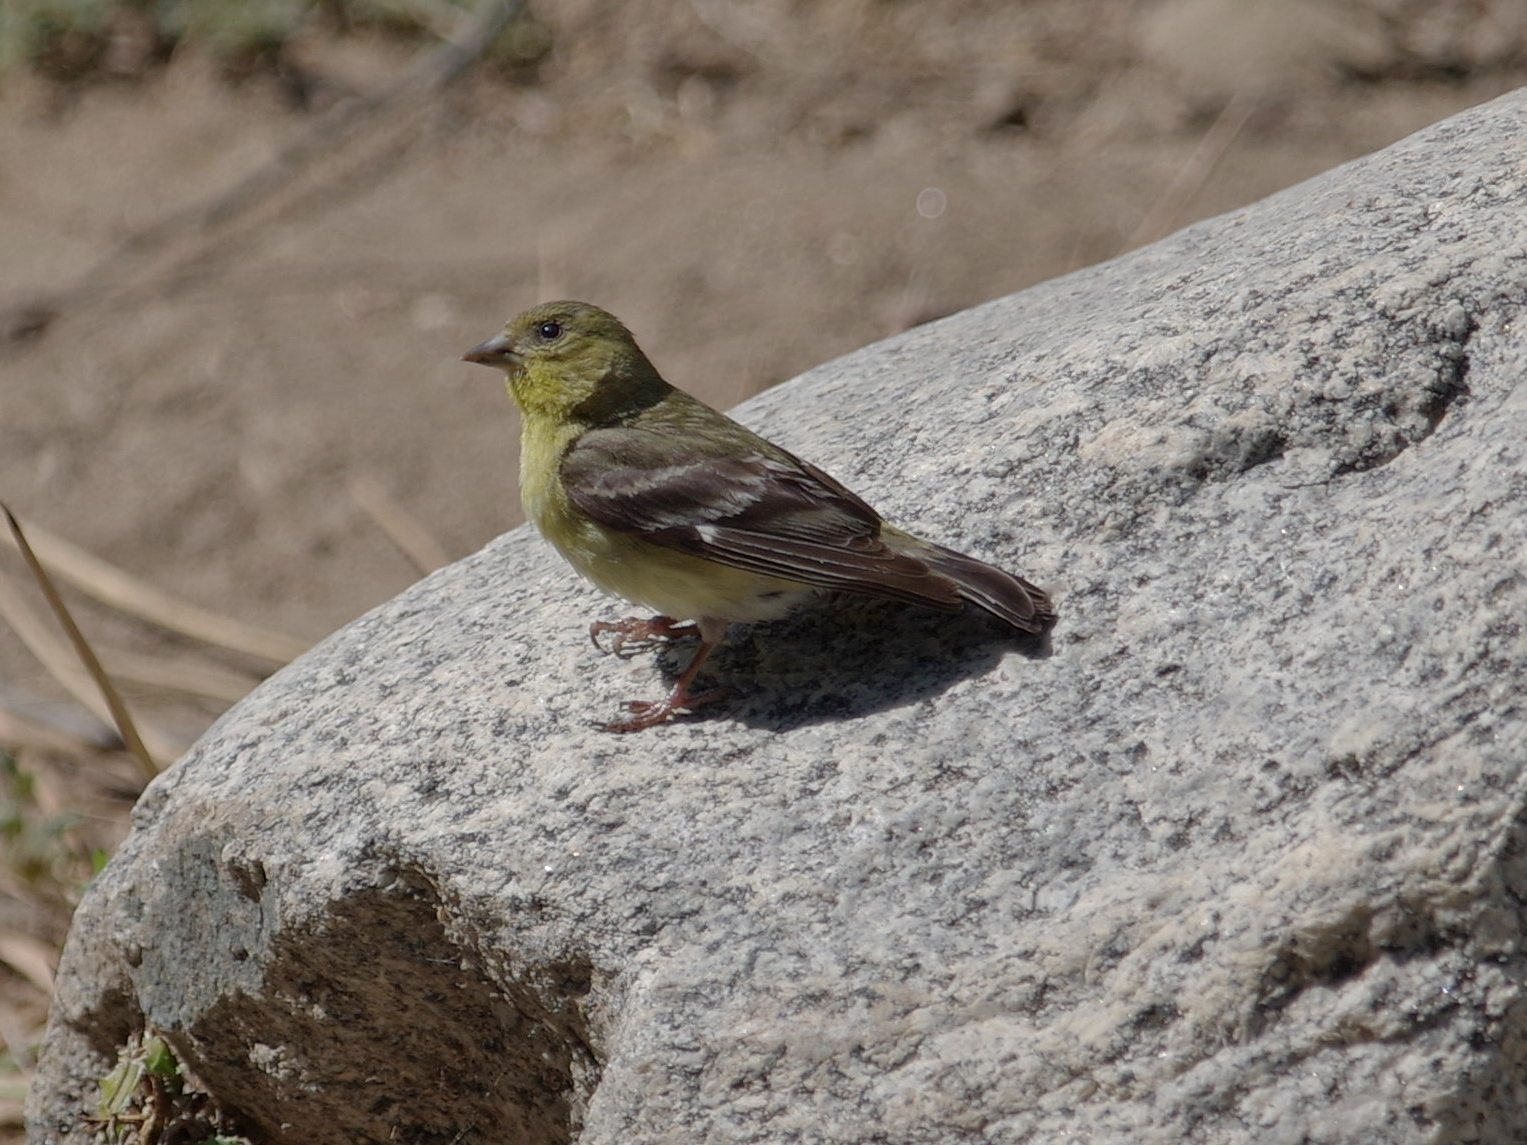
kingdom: Animalia
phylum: Chordata
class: Aves
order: Passeriformes
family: Fringillidae
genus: Spinus
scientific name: Spinus psaltria
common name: Lesser goldfinch
